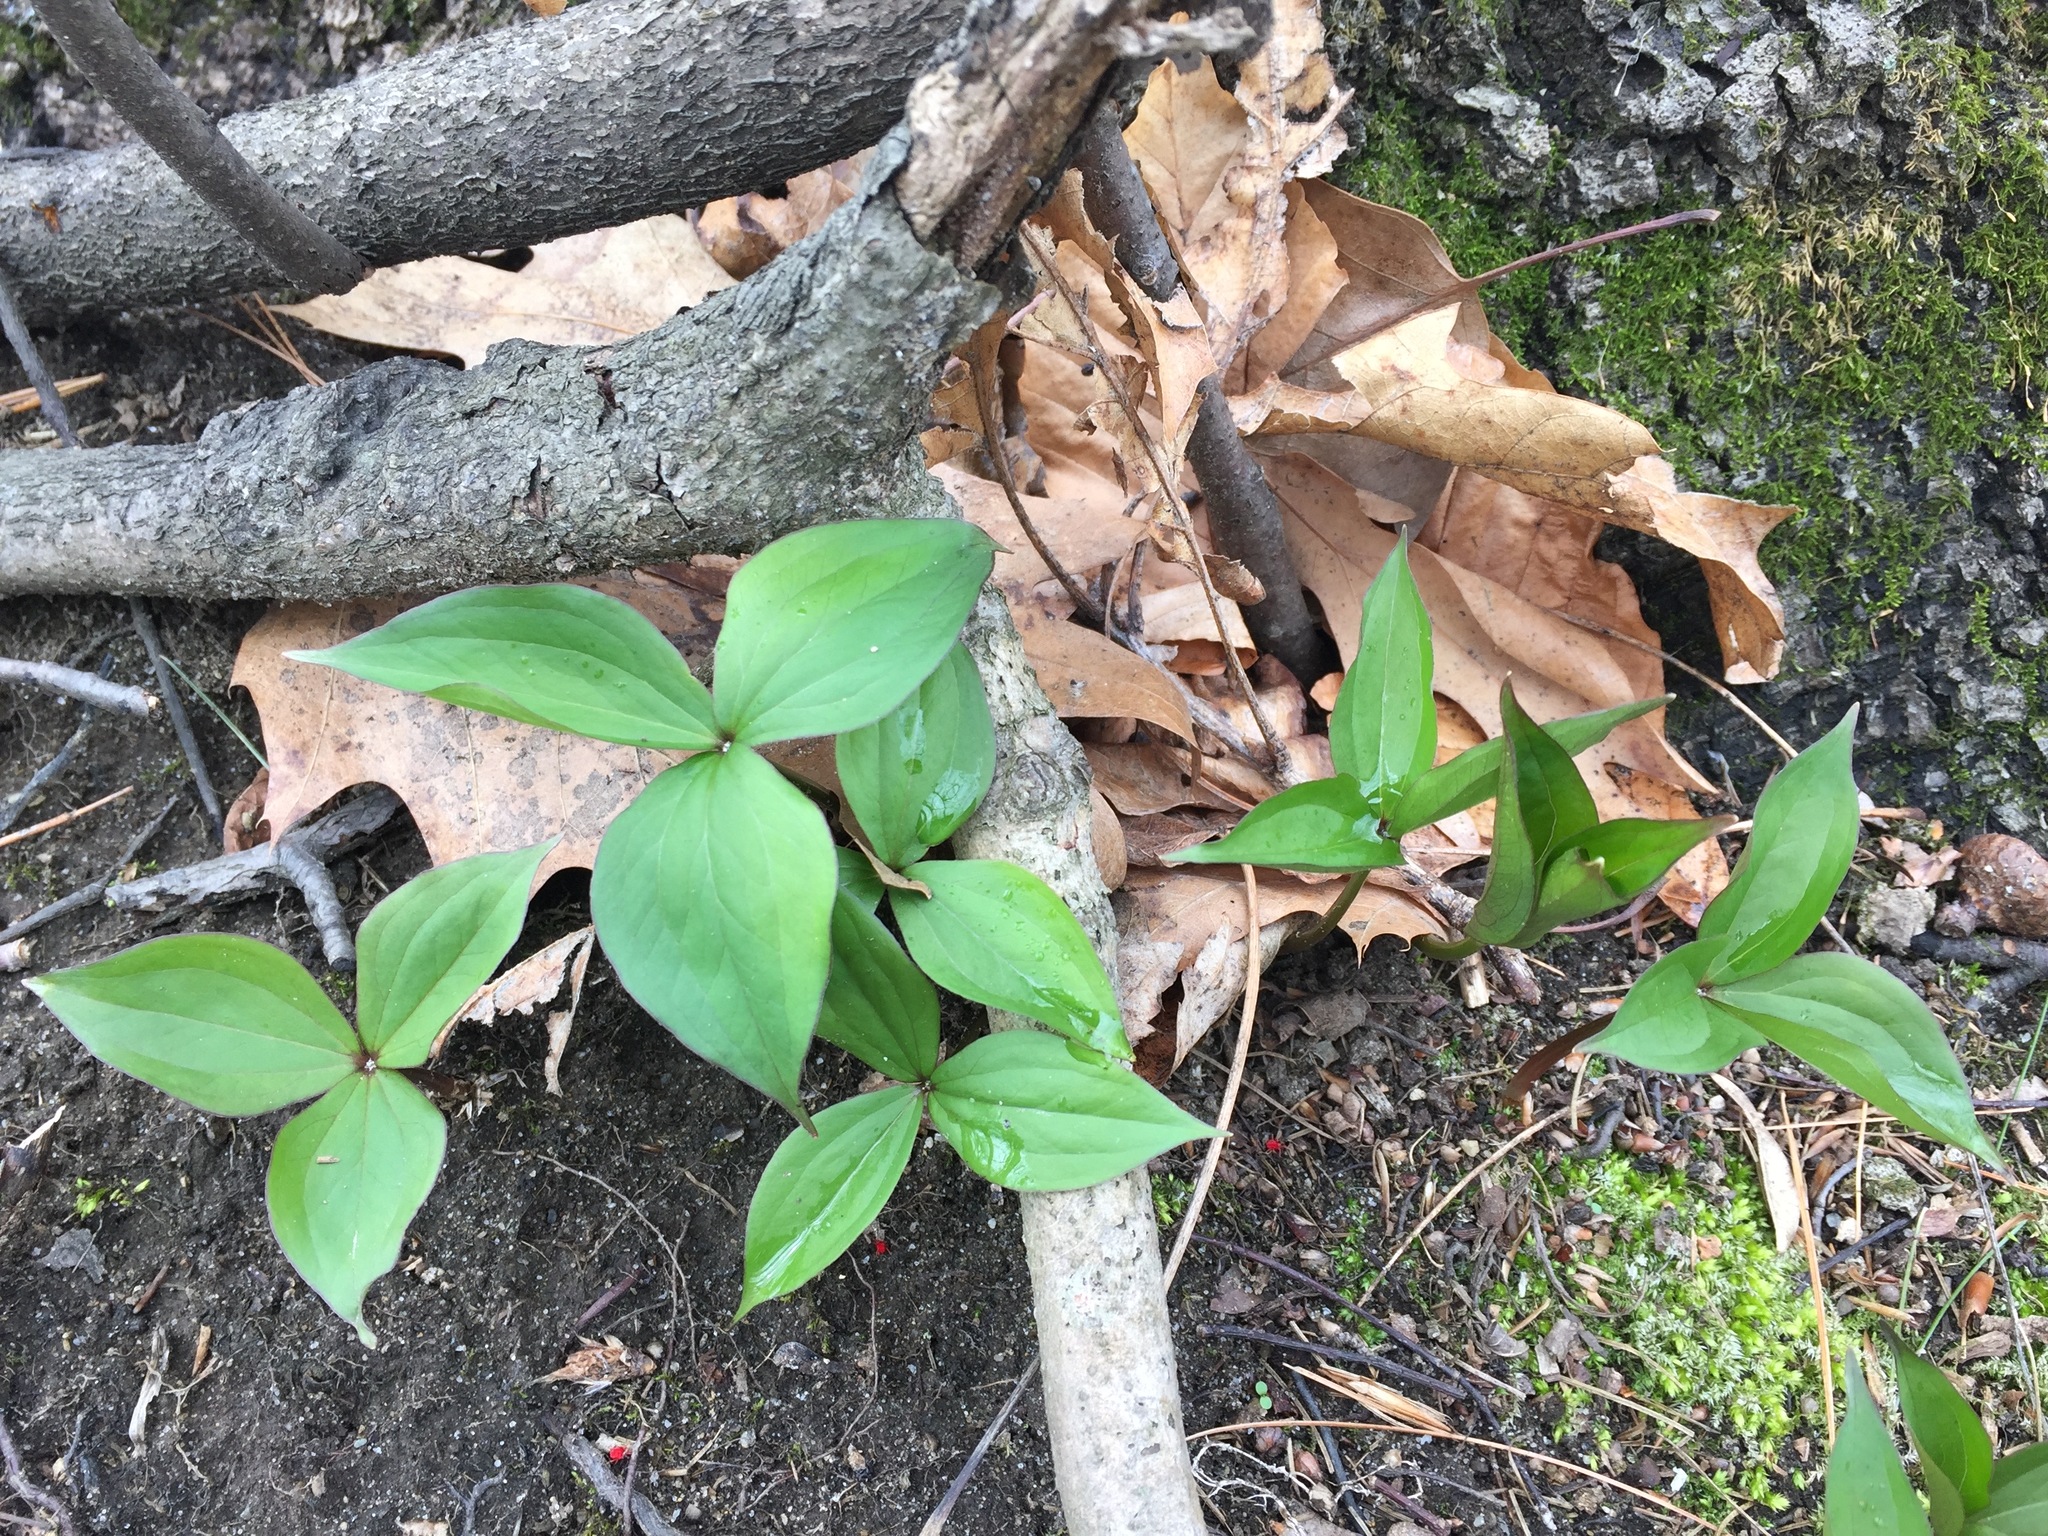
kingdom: Plantae
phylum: Tracheophyta
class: Liliopsida
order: Liliales
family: Melanthiaceae
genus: Trillium
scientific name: Trillium grandiflorum
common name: Great white trillium
